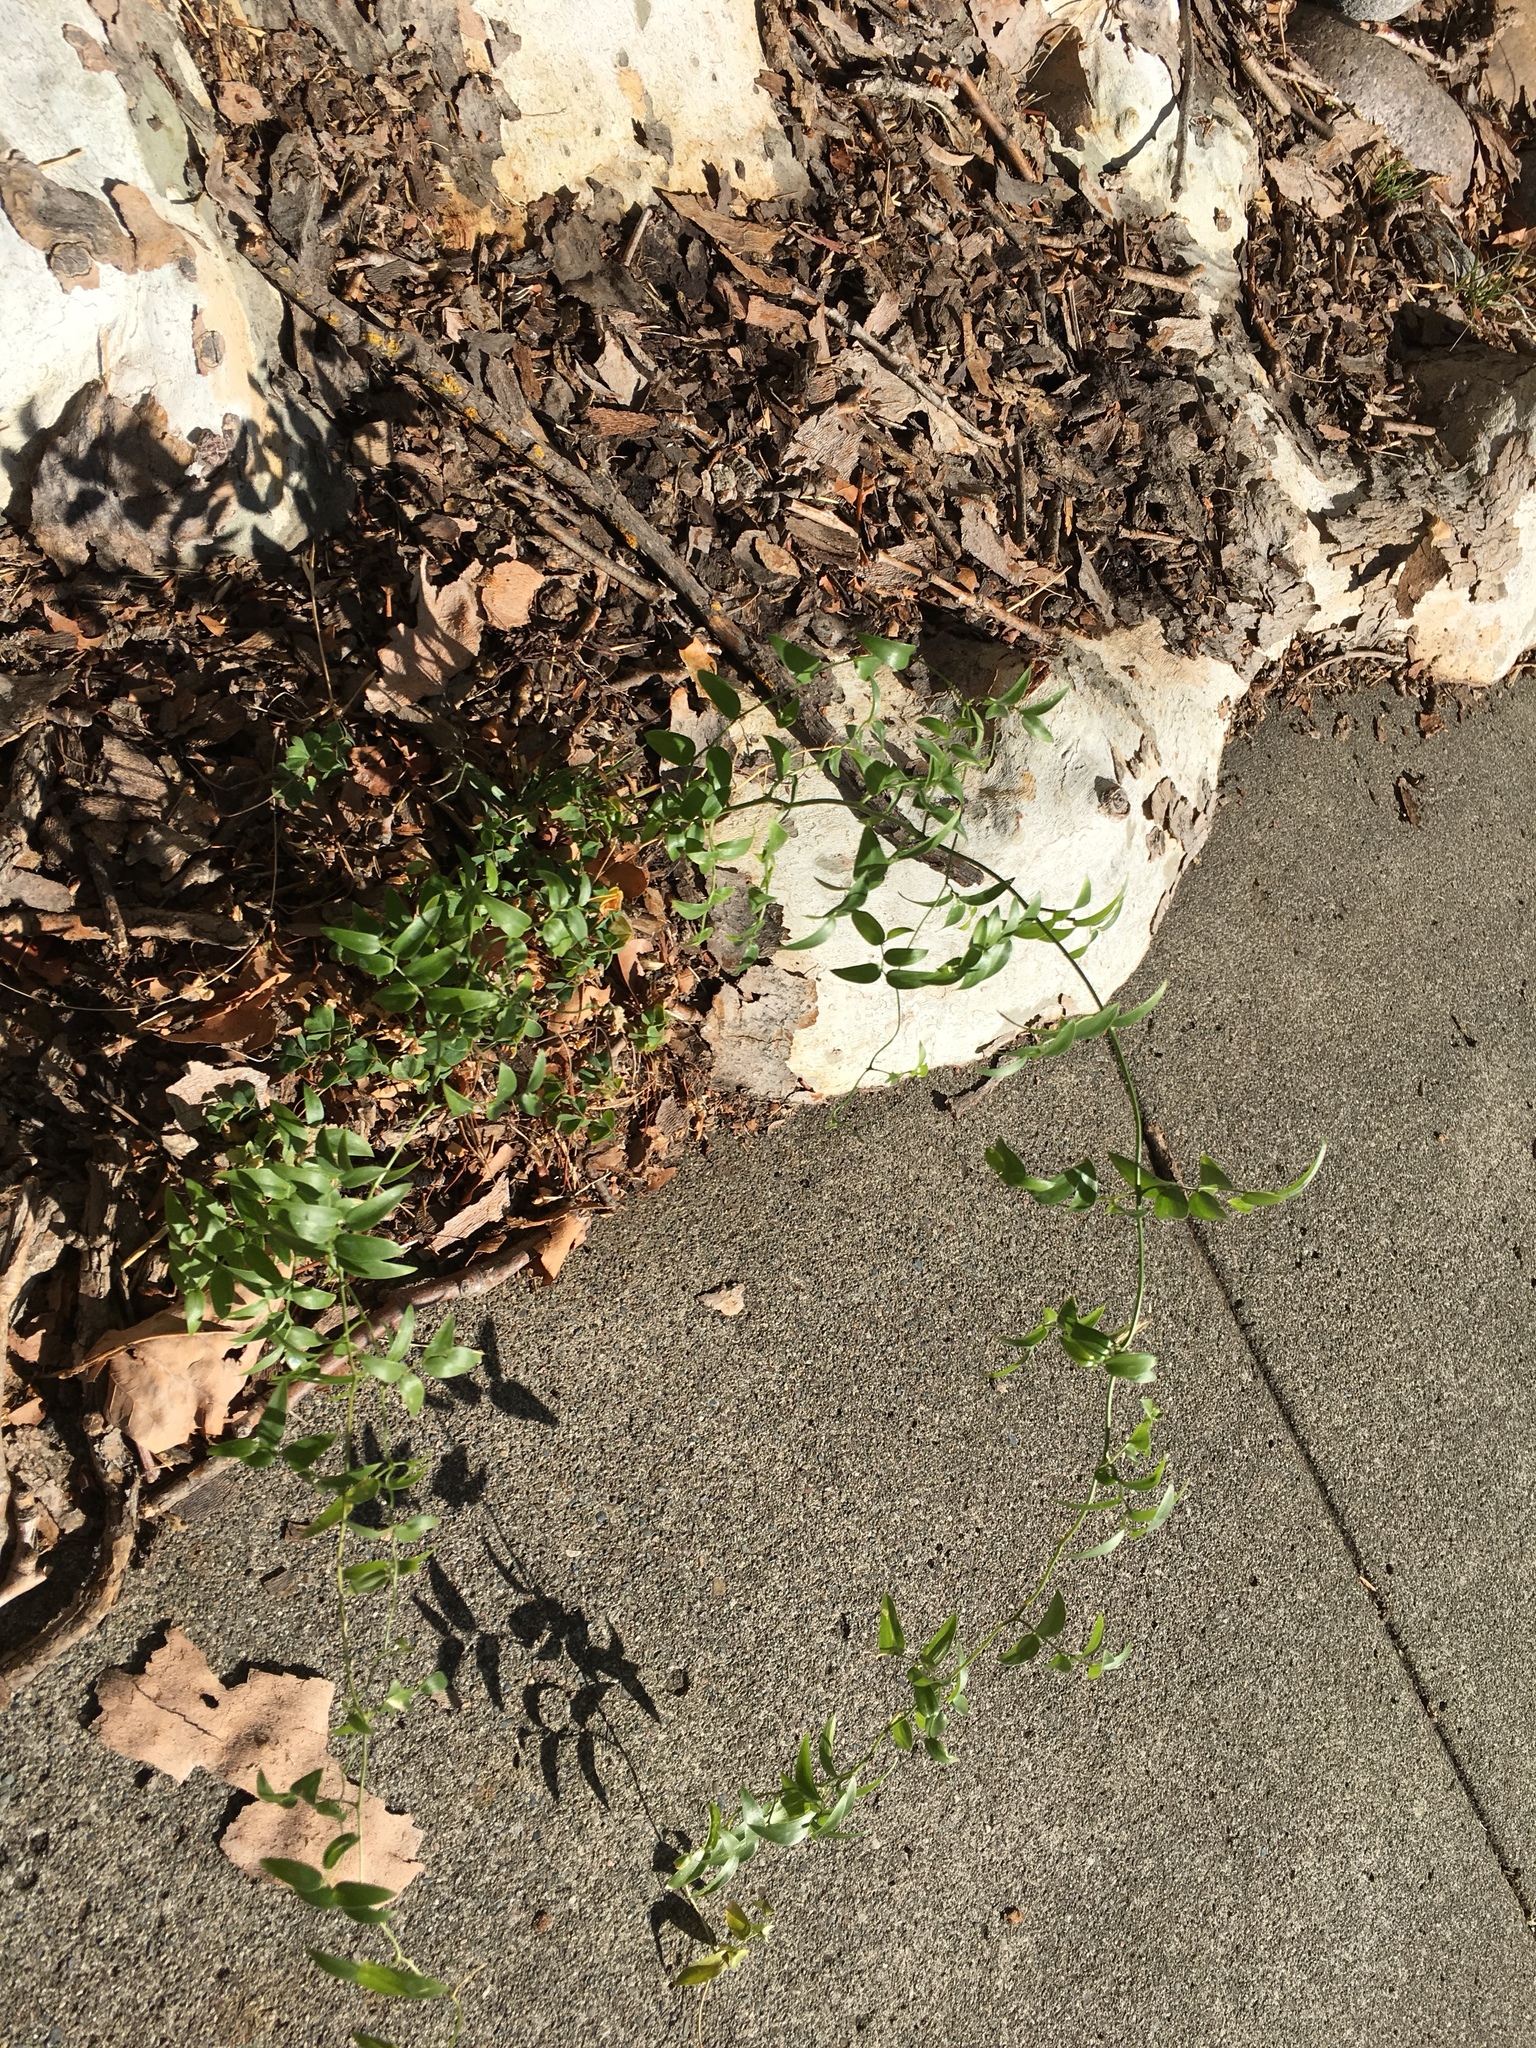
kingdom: Plantae
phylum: Tracheophyta
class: Liliopsida
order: Asparagales
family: Asparagaceae
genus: Asparagus
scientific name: Asparagus asparagoides
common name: African asparagus fern
